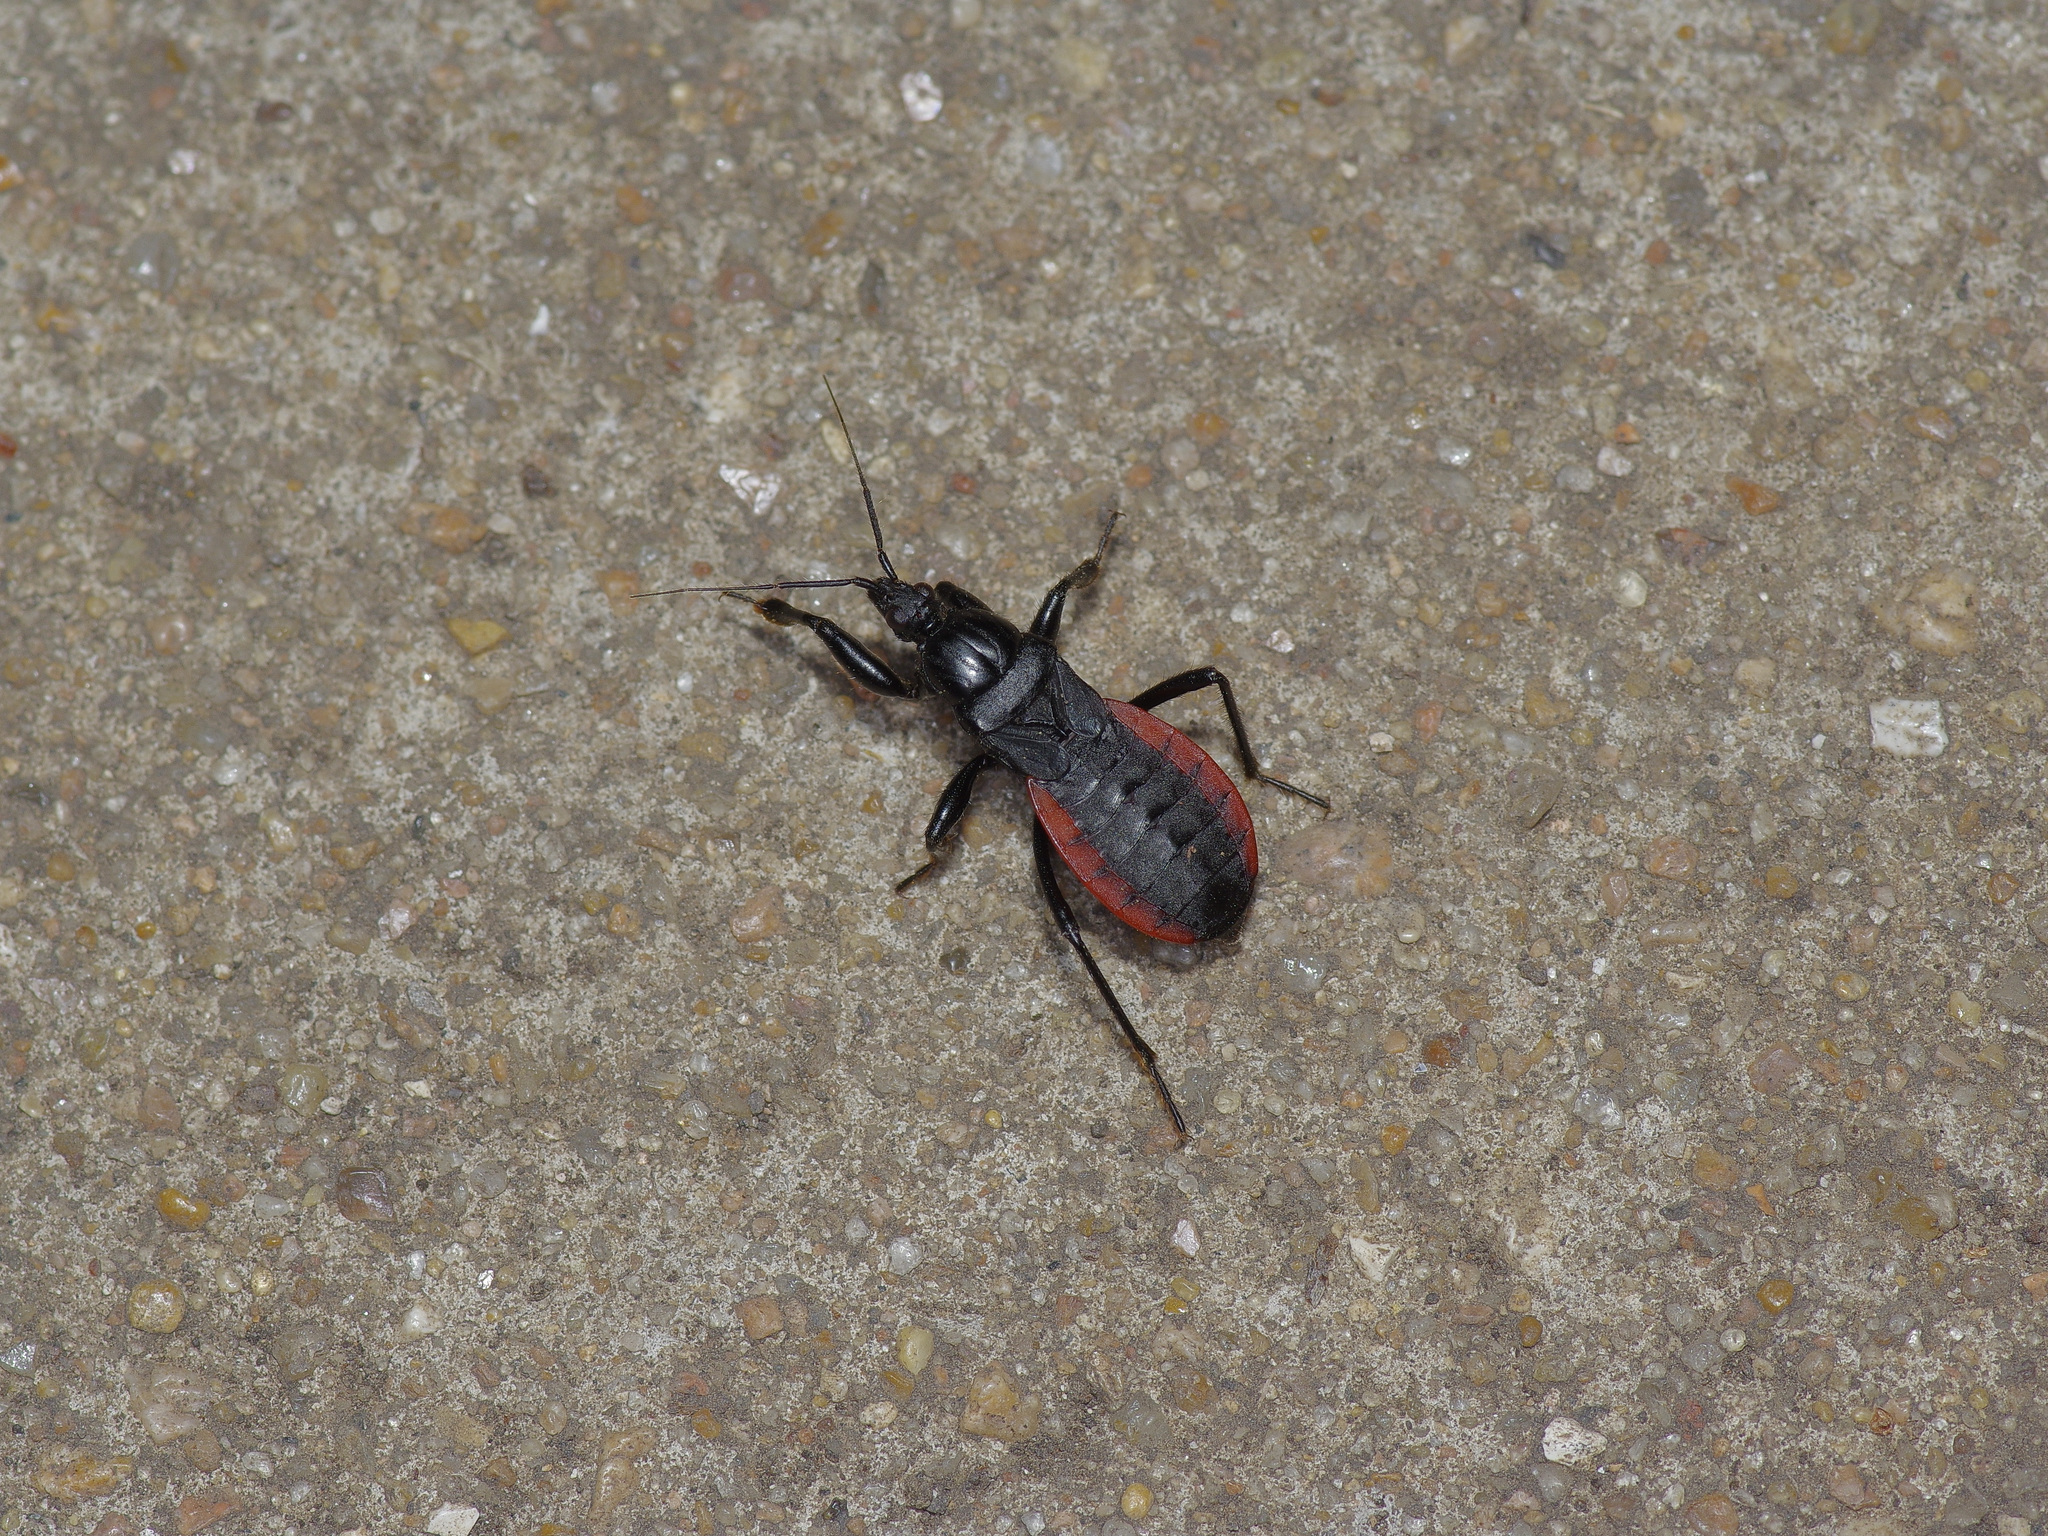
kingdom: Animalia
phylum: Arthropoda
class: Insecta
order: Hemiptera
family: Reduviidae
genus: Melanolestes
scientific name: Melanolestes picipes
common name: Assassin bug
